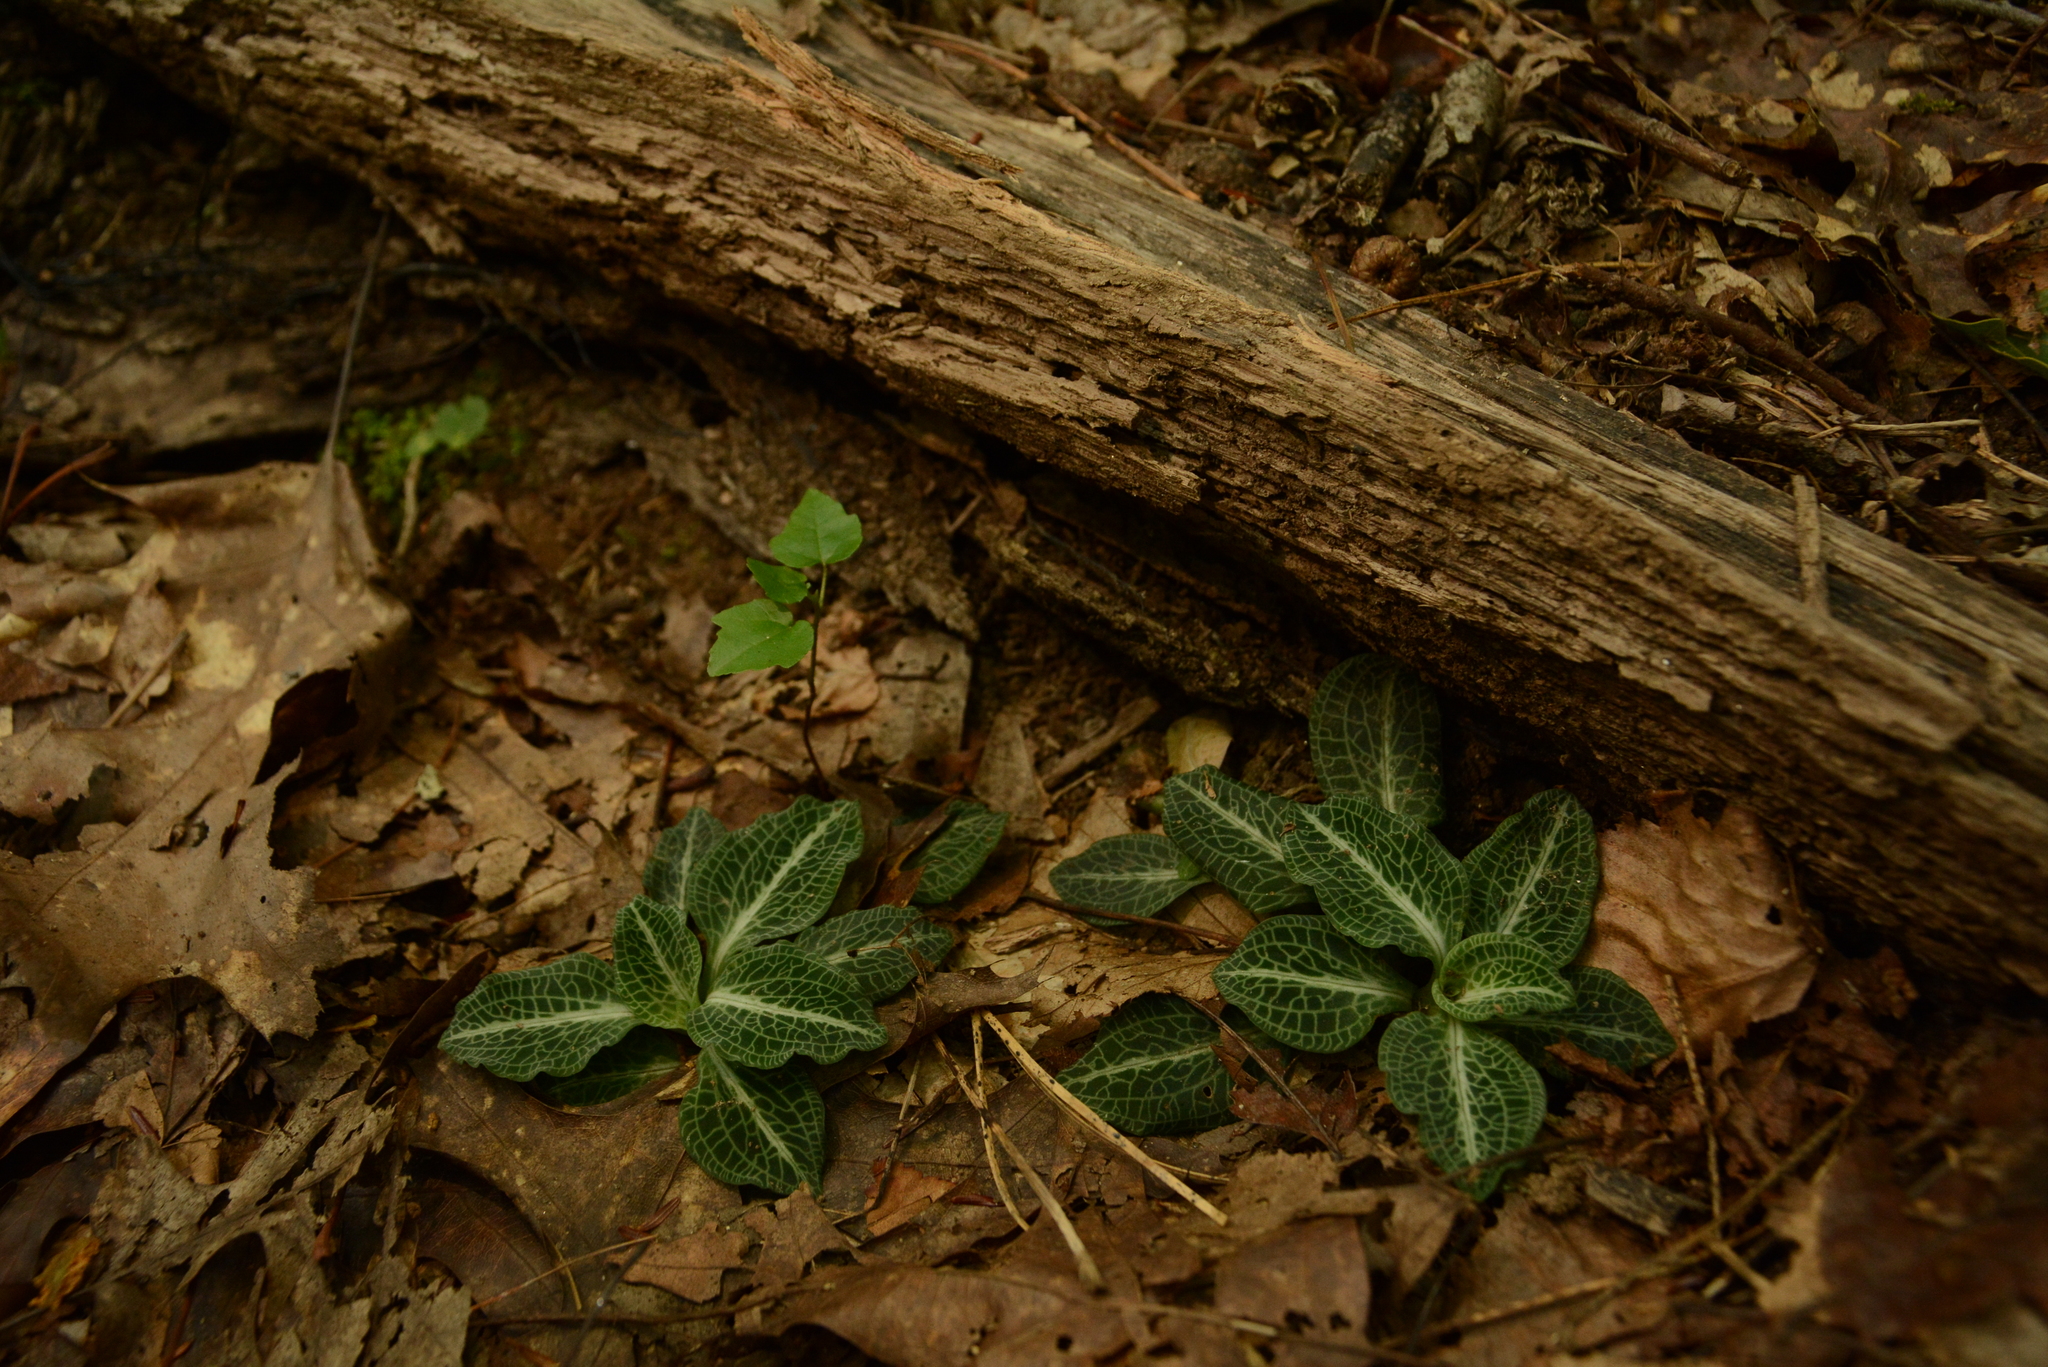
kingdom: Plantae
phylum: Tracheophyta
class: Liliopsida
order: Asparagales
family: Orchidaceae
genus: Goodyera
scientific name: Goodyera pubescens
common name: Downy rattlesnake-plantain
